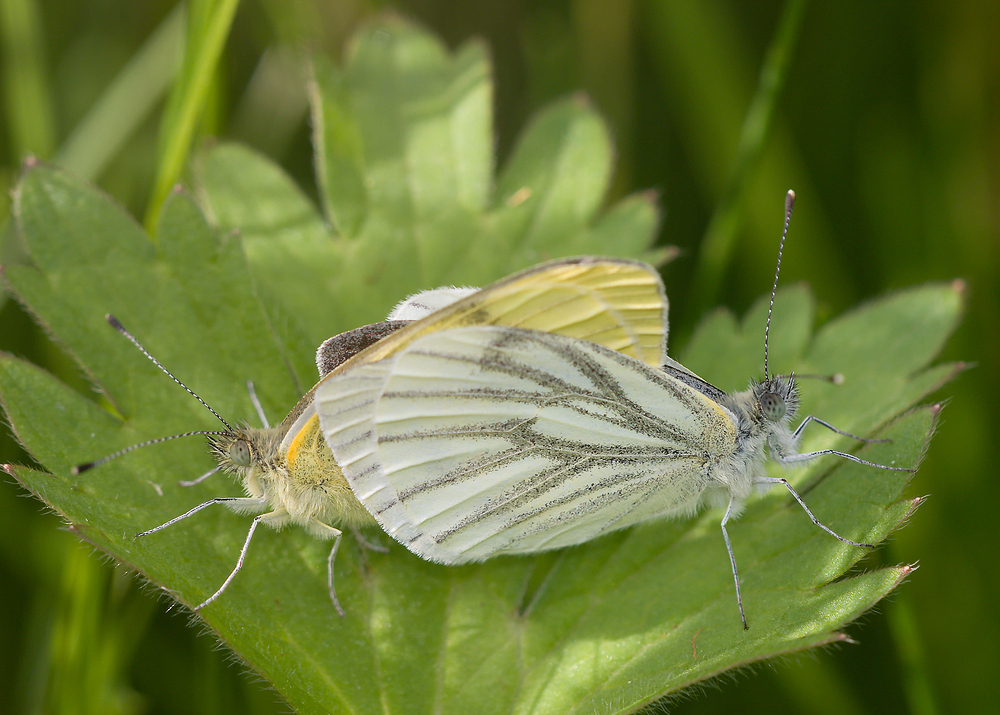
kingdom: Animalia
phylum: Arthropoda
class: Insecta
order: Lepidoptera
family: Pieridae
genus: Pieris
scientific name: Pieris napi
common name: Green-veined white
